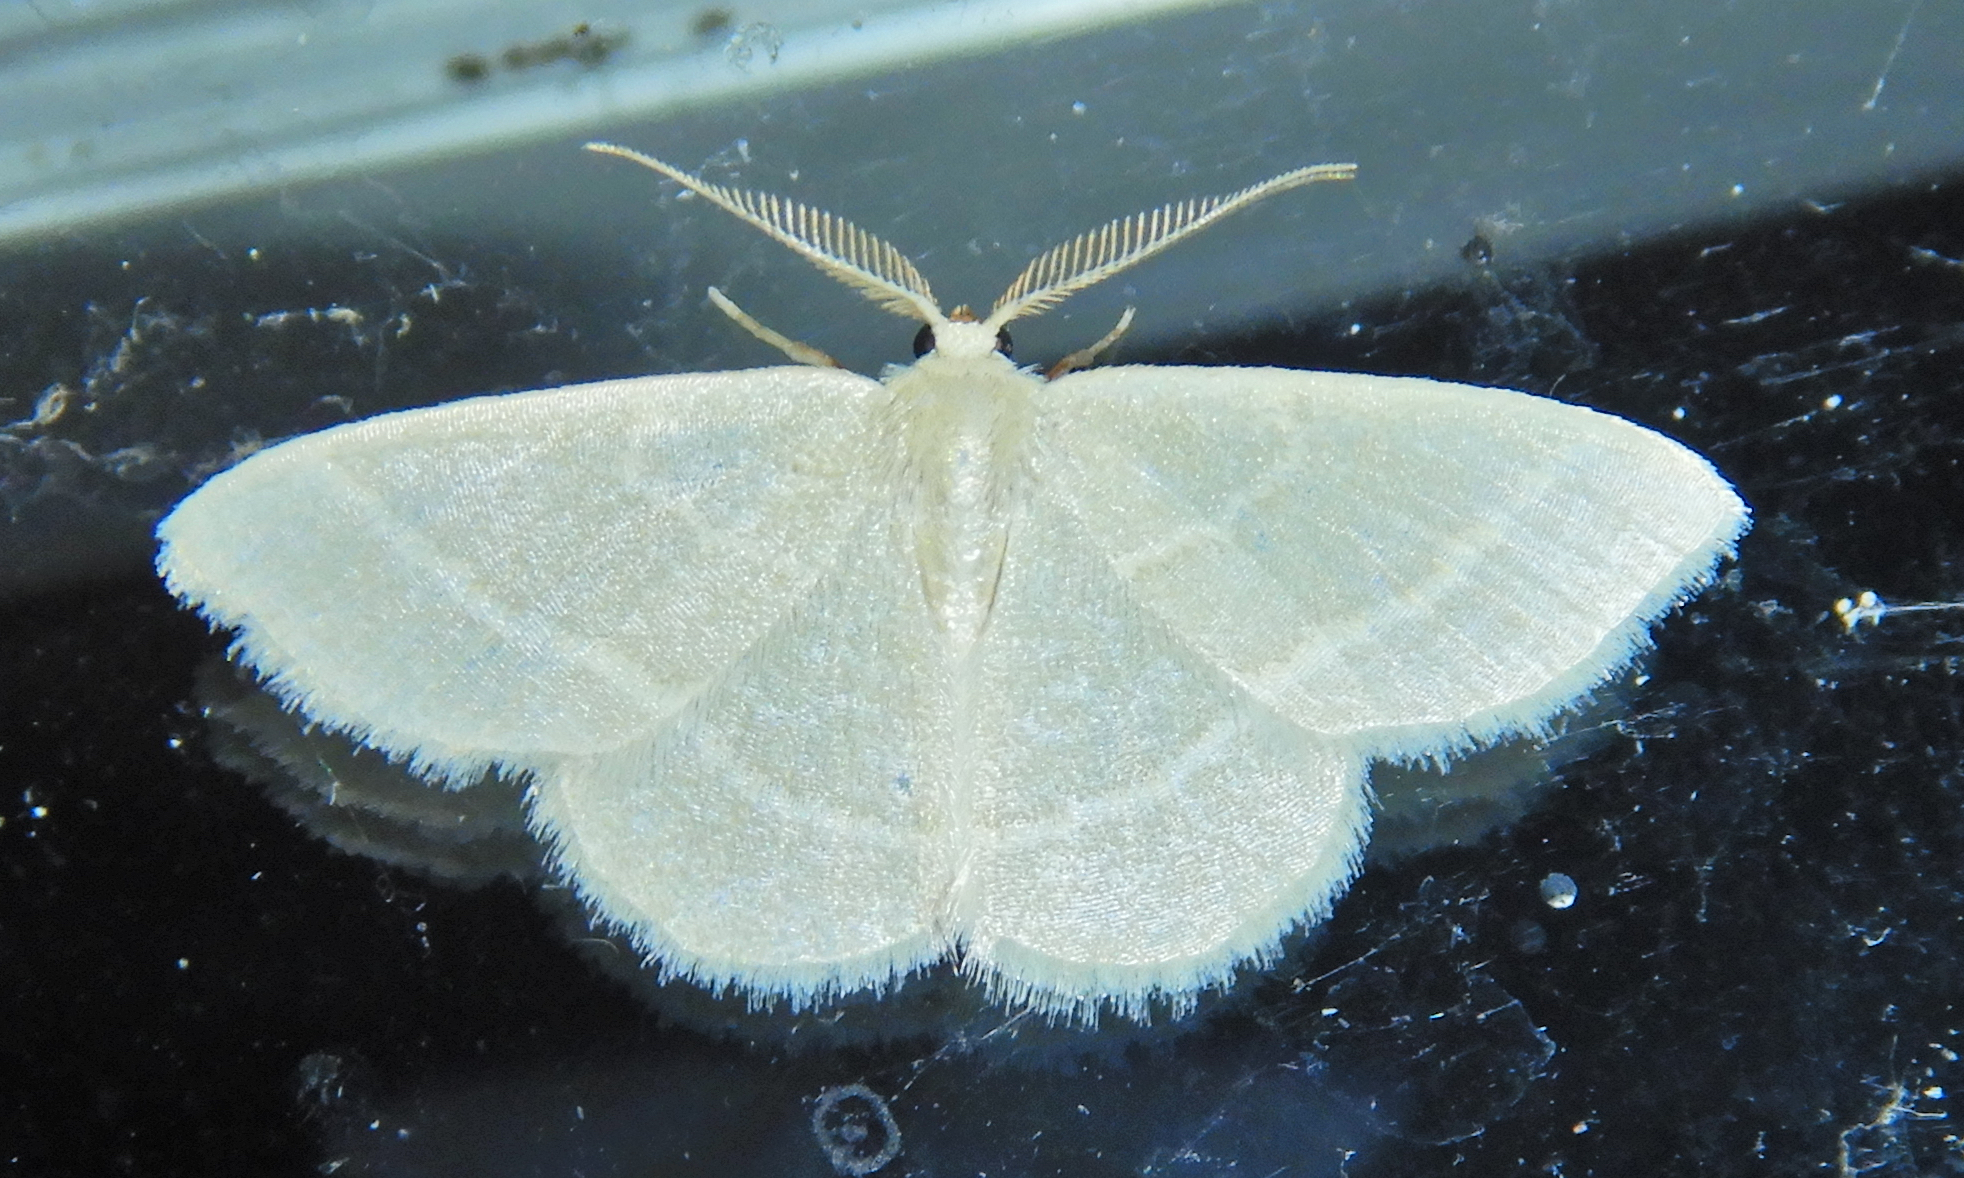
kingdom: Animalia
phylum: Arthropoda
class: Insecta
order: Lepidoptera
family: Geometridae
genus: Chlorochlamys
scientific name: Chlorochlamys chloroleucaria
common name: Blackberry looper
